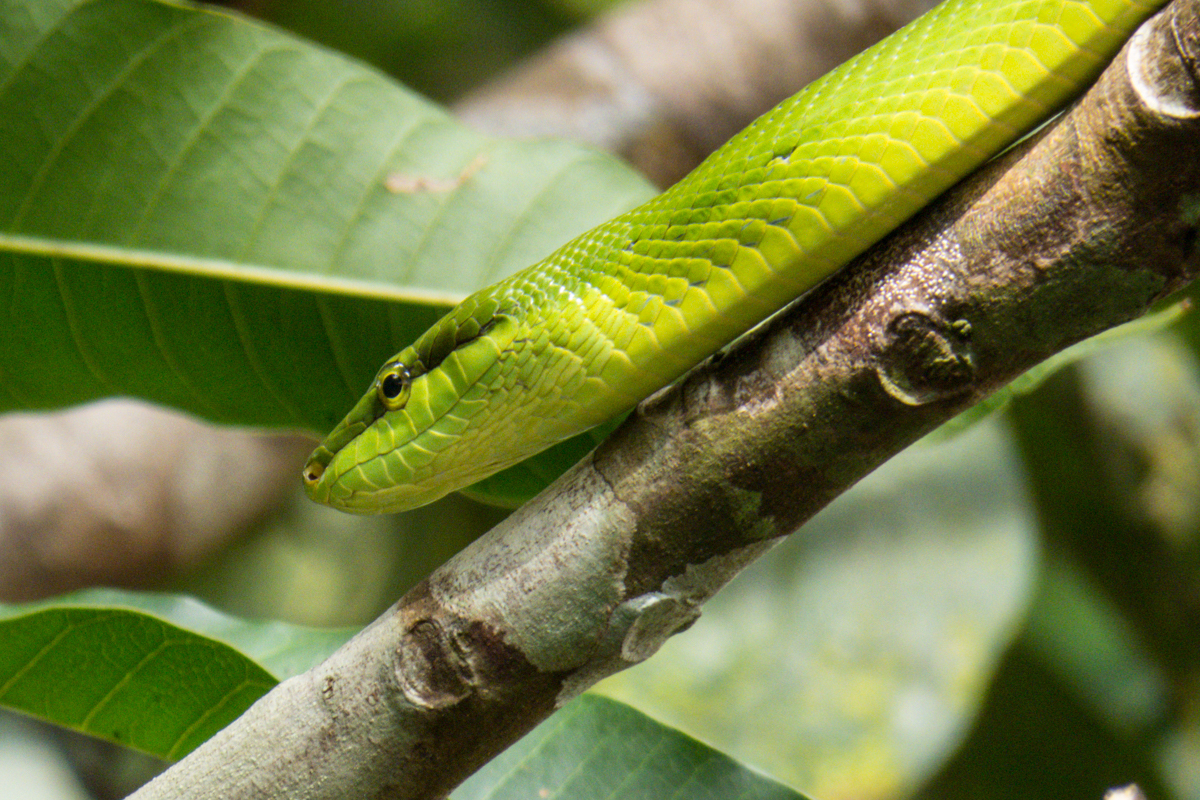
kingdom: Animalia
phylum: Chordata
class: Squamata
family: Colubridae
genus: Gonyosoma
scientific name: Gonyosoma oxycephalum
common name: Red-tailed racer
